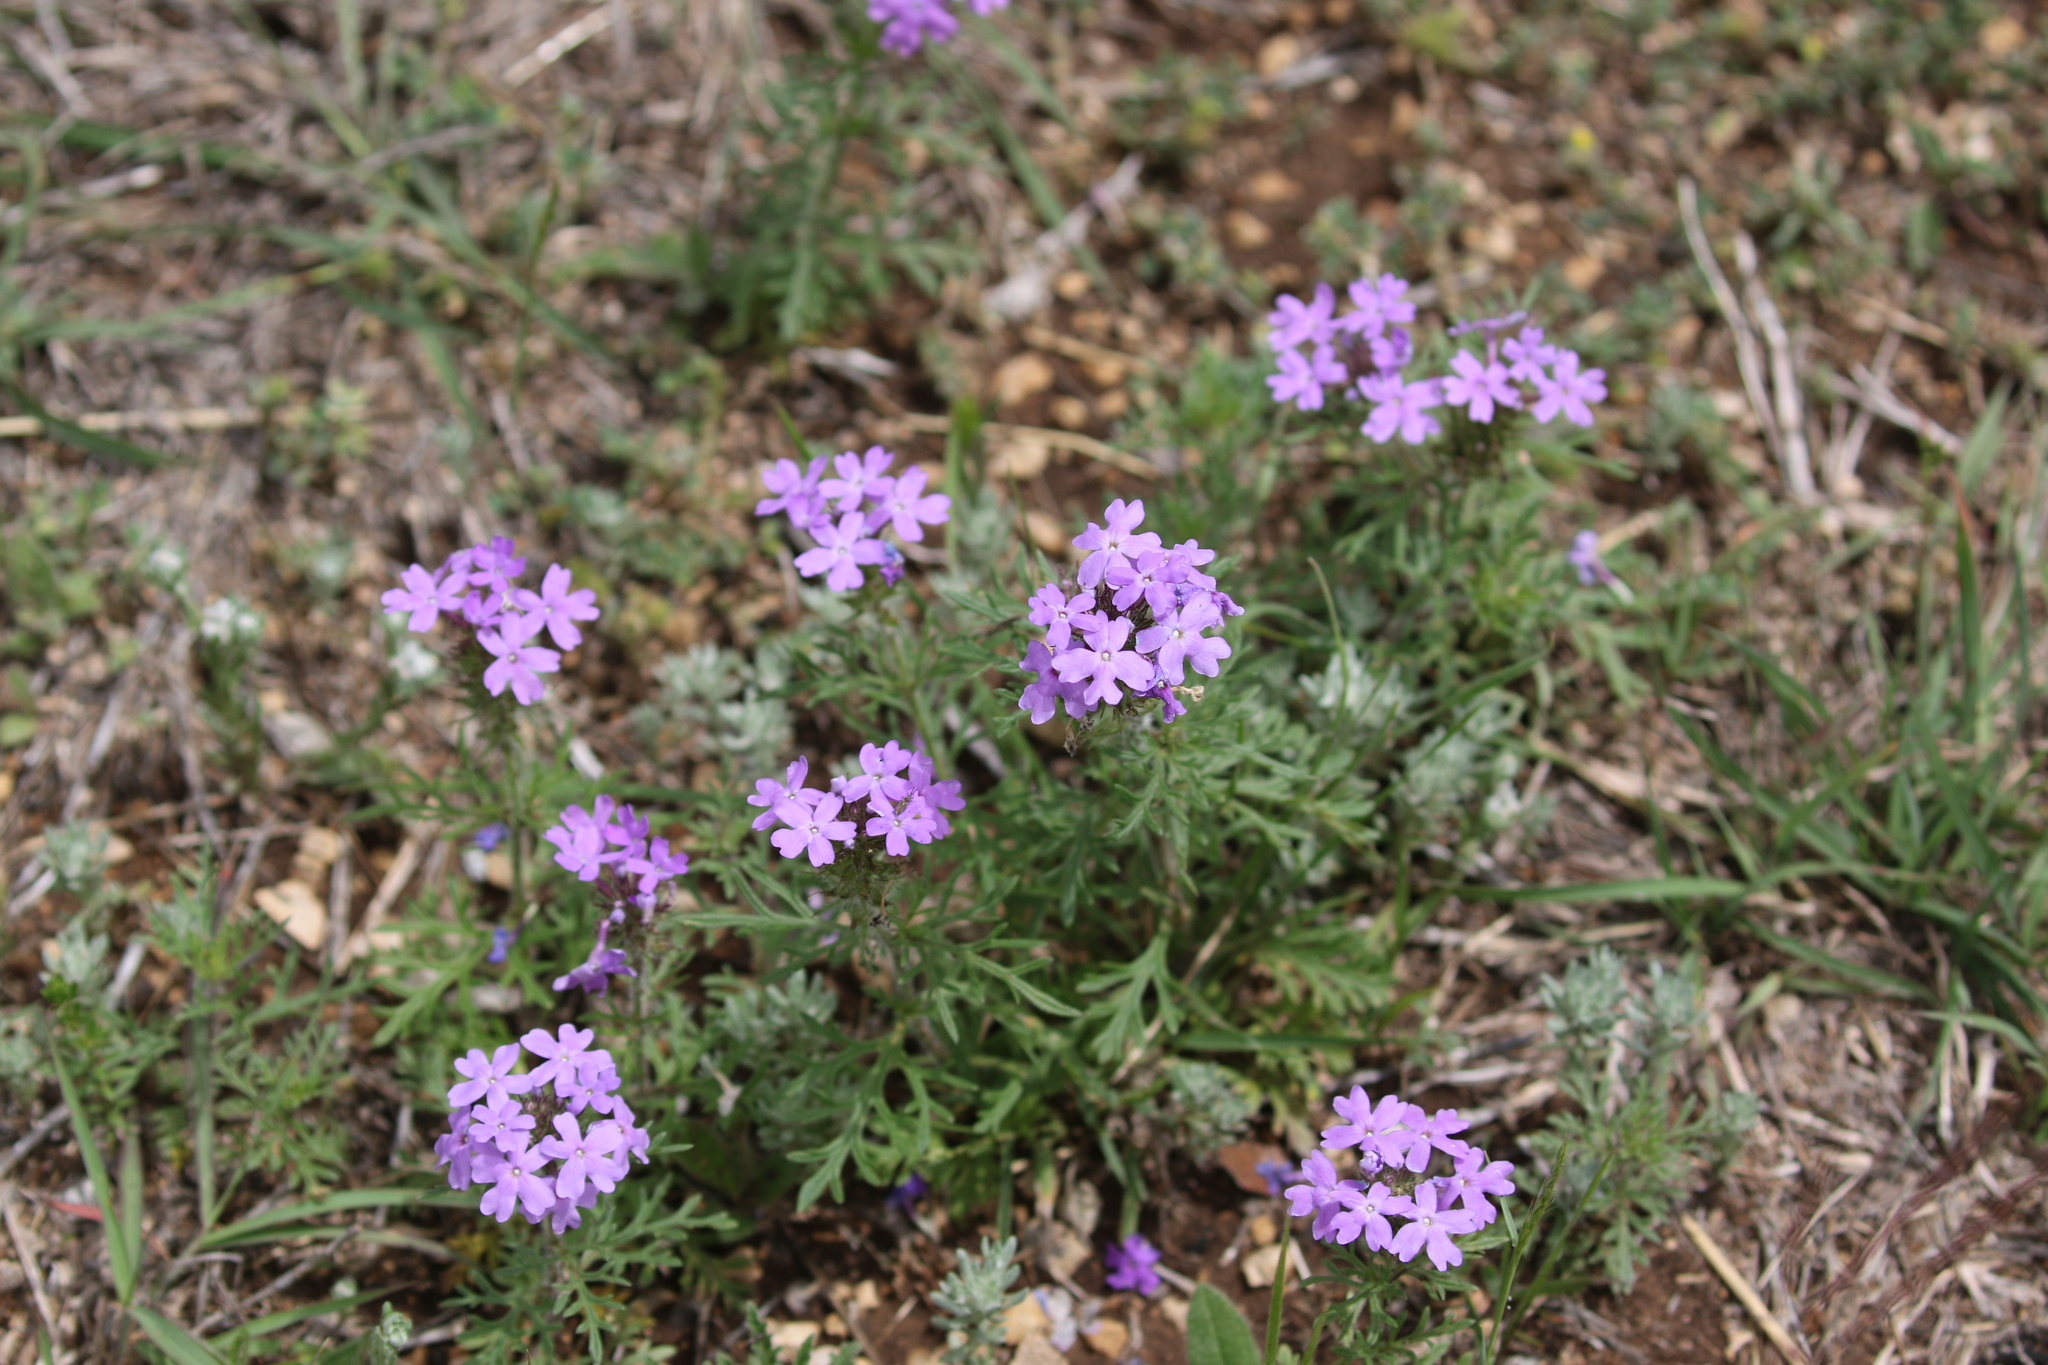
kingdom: Plantae
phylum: Tracheophyta
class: Magnoliopsida
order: Lamiales
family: Verbenaceae
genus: Verbena
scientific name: Verbena bipinnatifida
